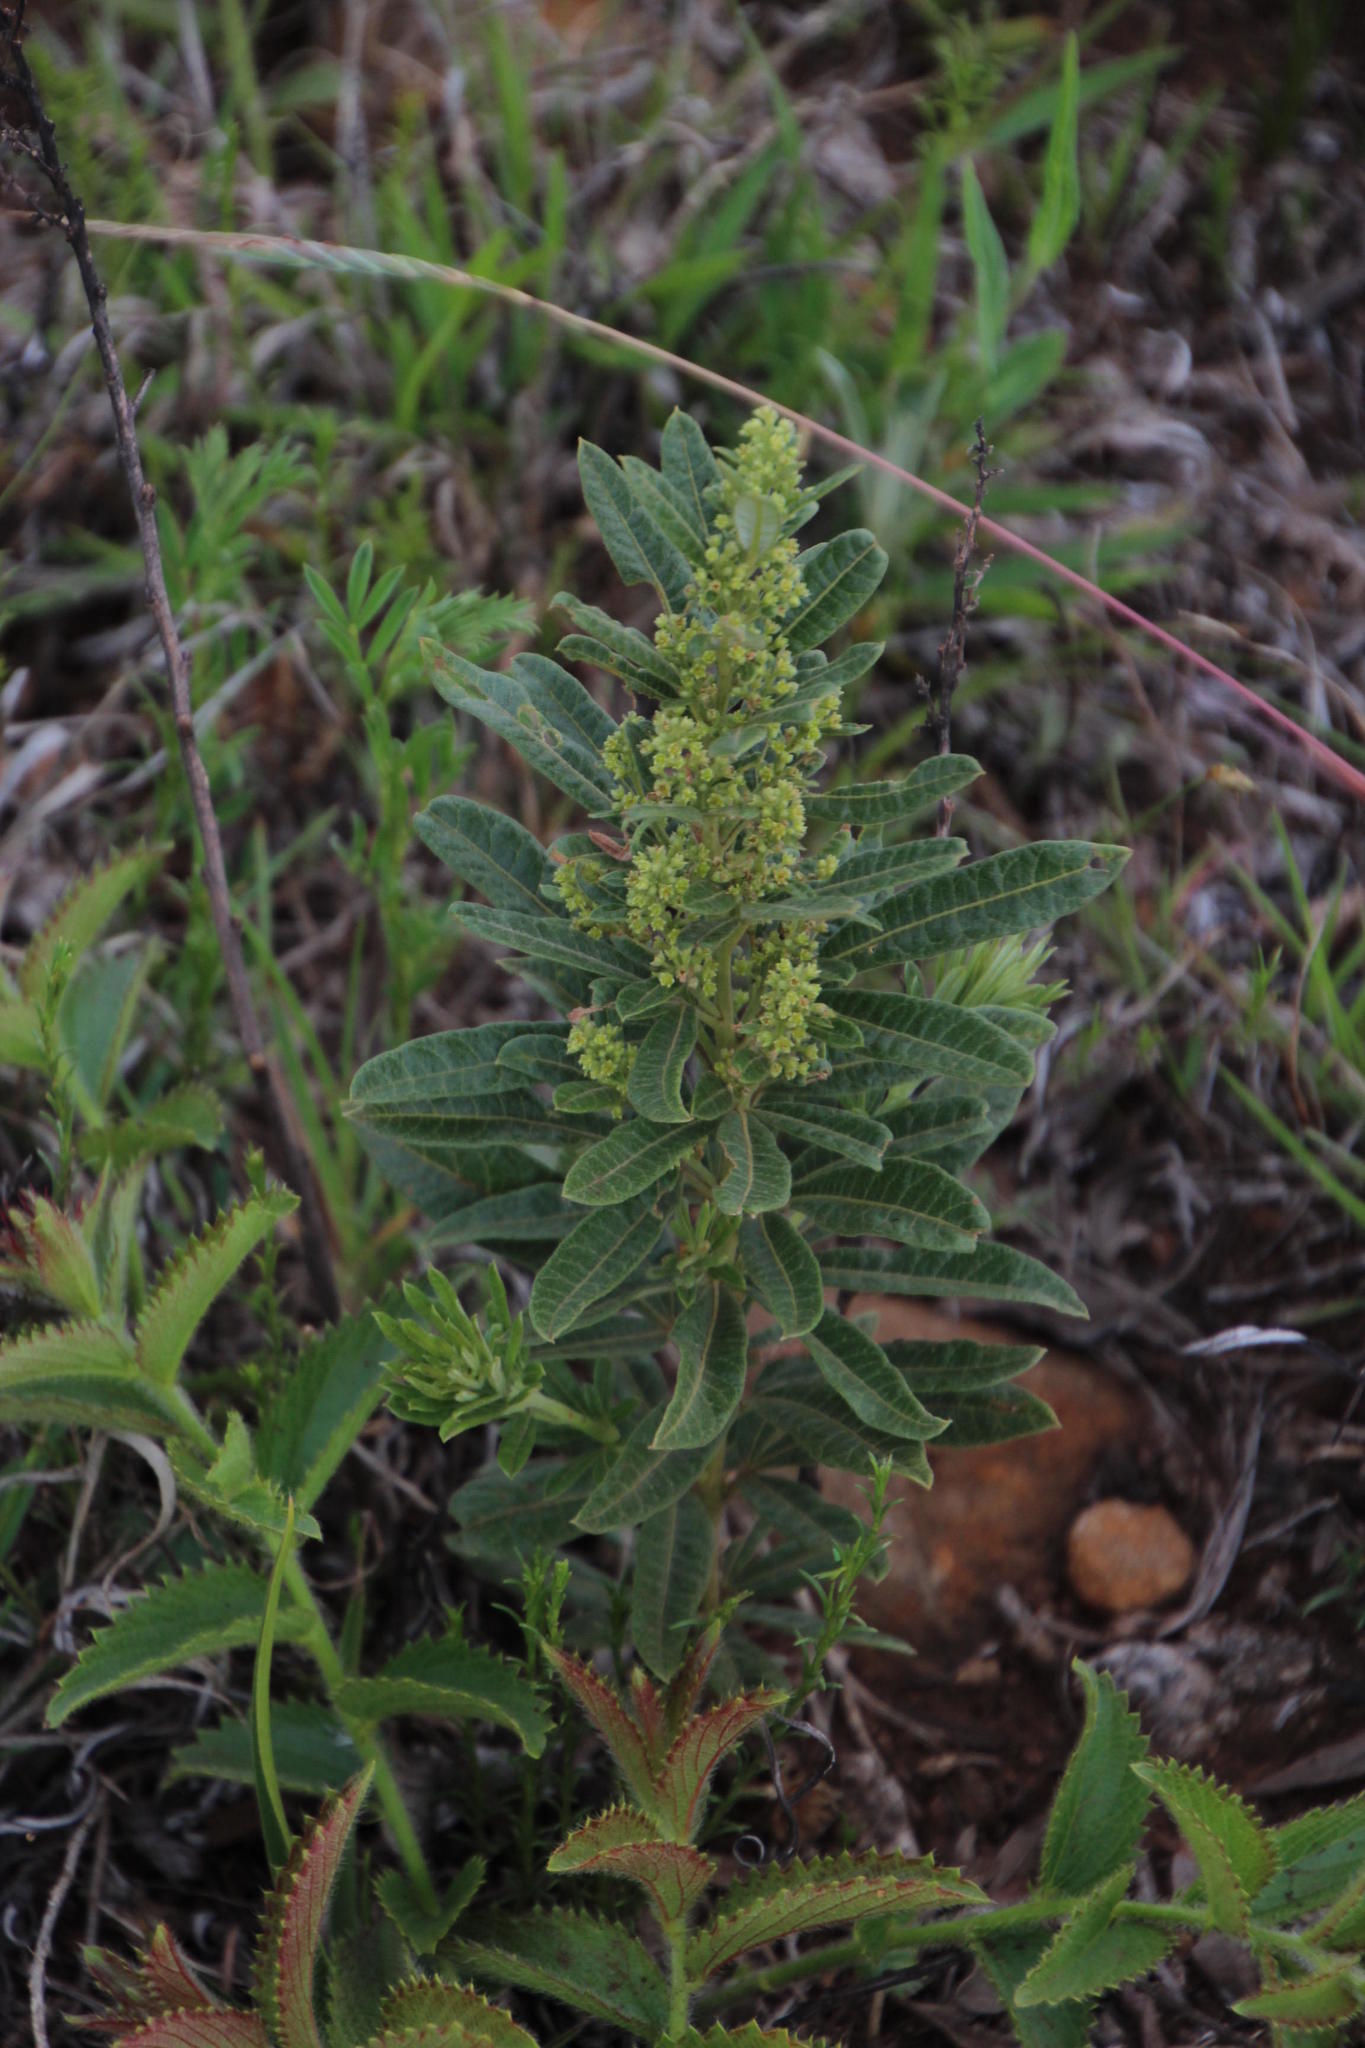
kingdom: Plantae
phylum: Tracheophyta
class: Magnoliopsida
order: Sapindales
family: Anacardiaceae
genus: Searsia
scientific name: Searsia discolor
